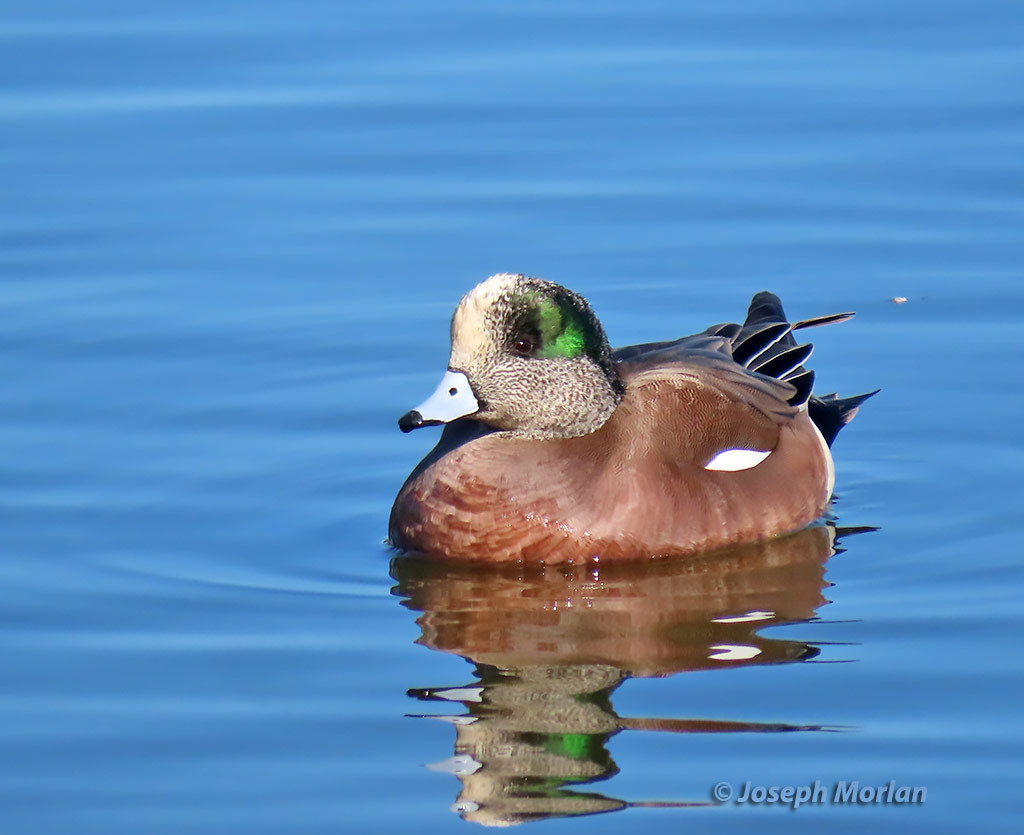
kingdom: Animalia
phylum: Chordata
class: Aves
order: Anseriformes
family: Anatidae
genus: Mareca
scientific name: Mareca americana
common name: American wigeon
